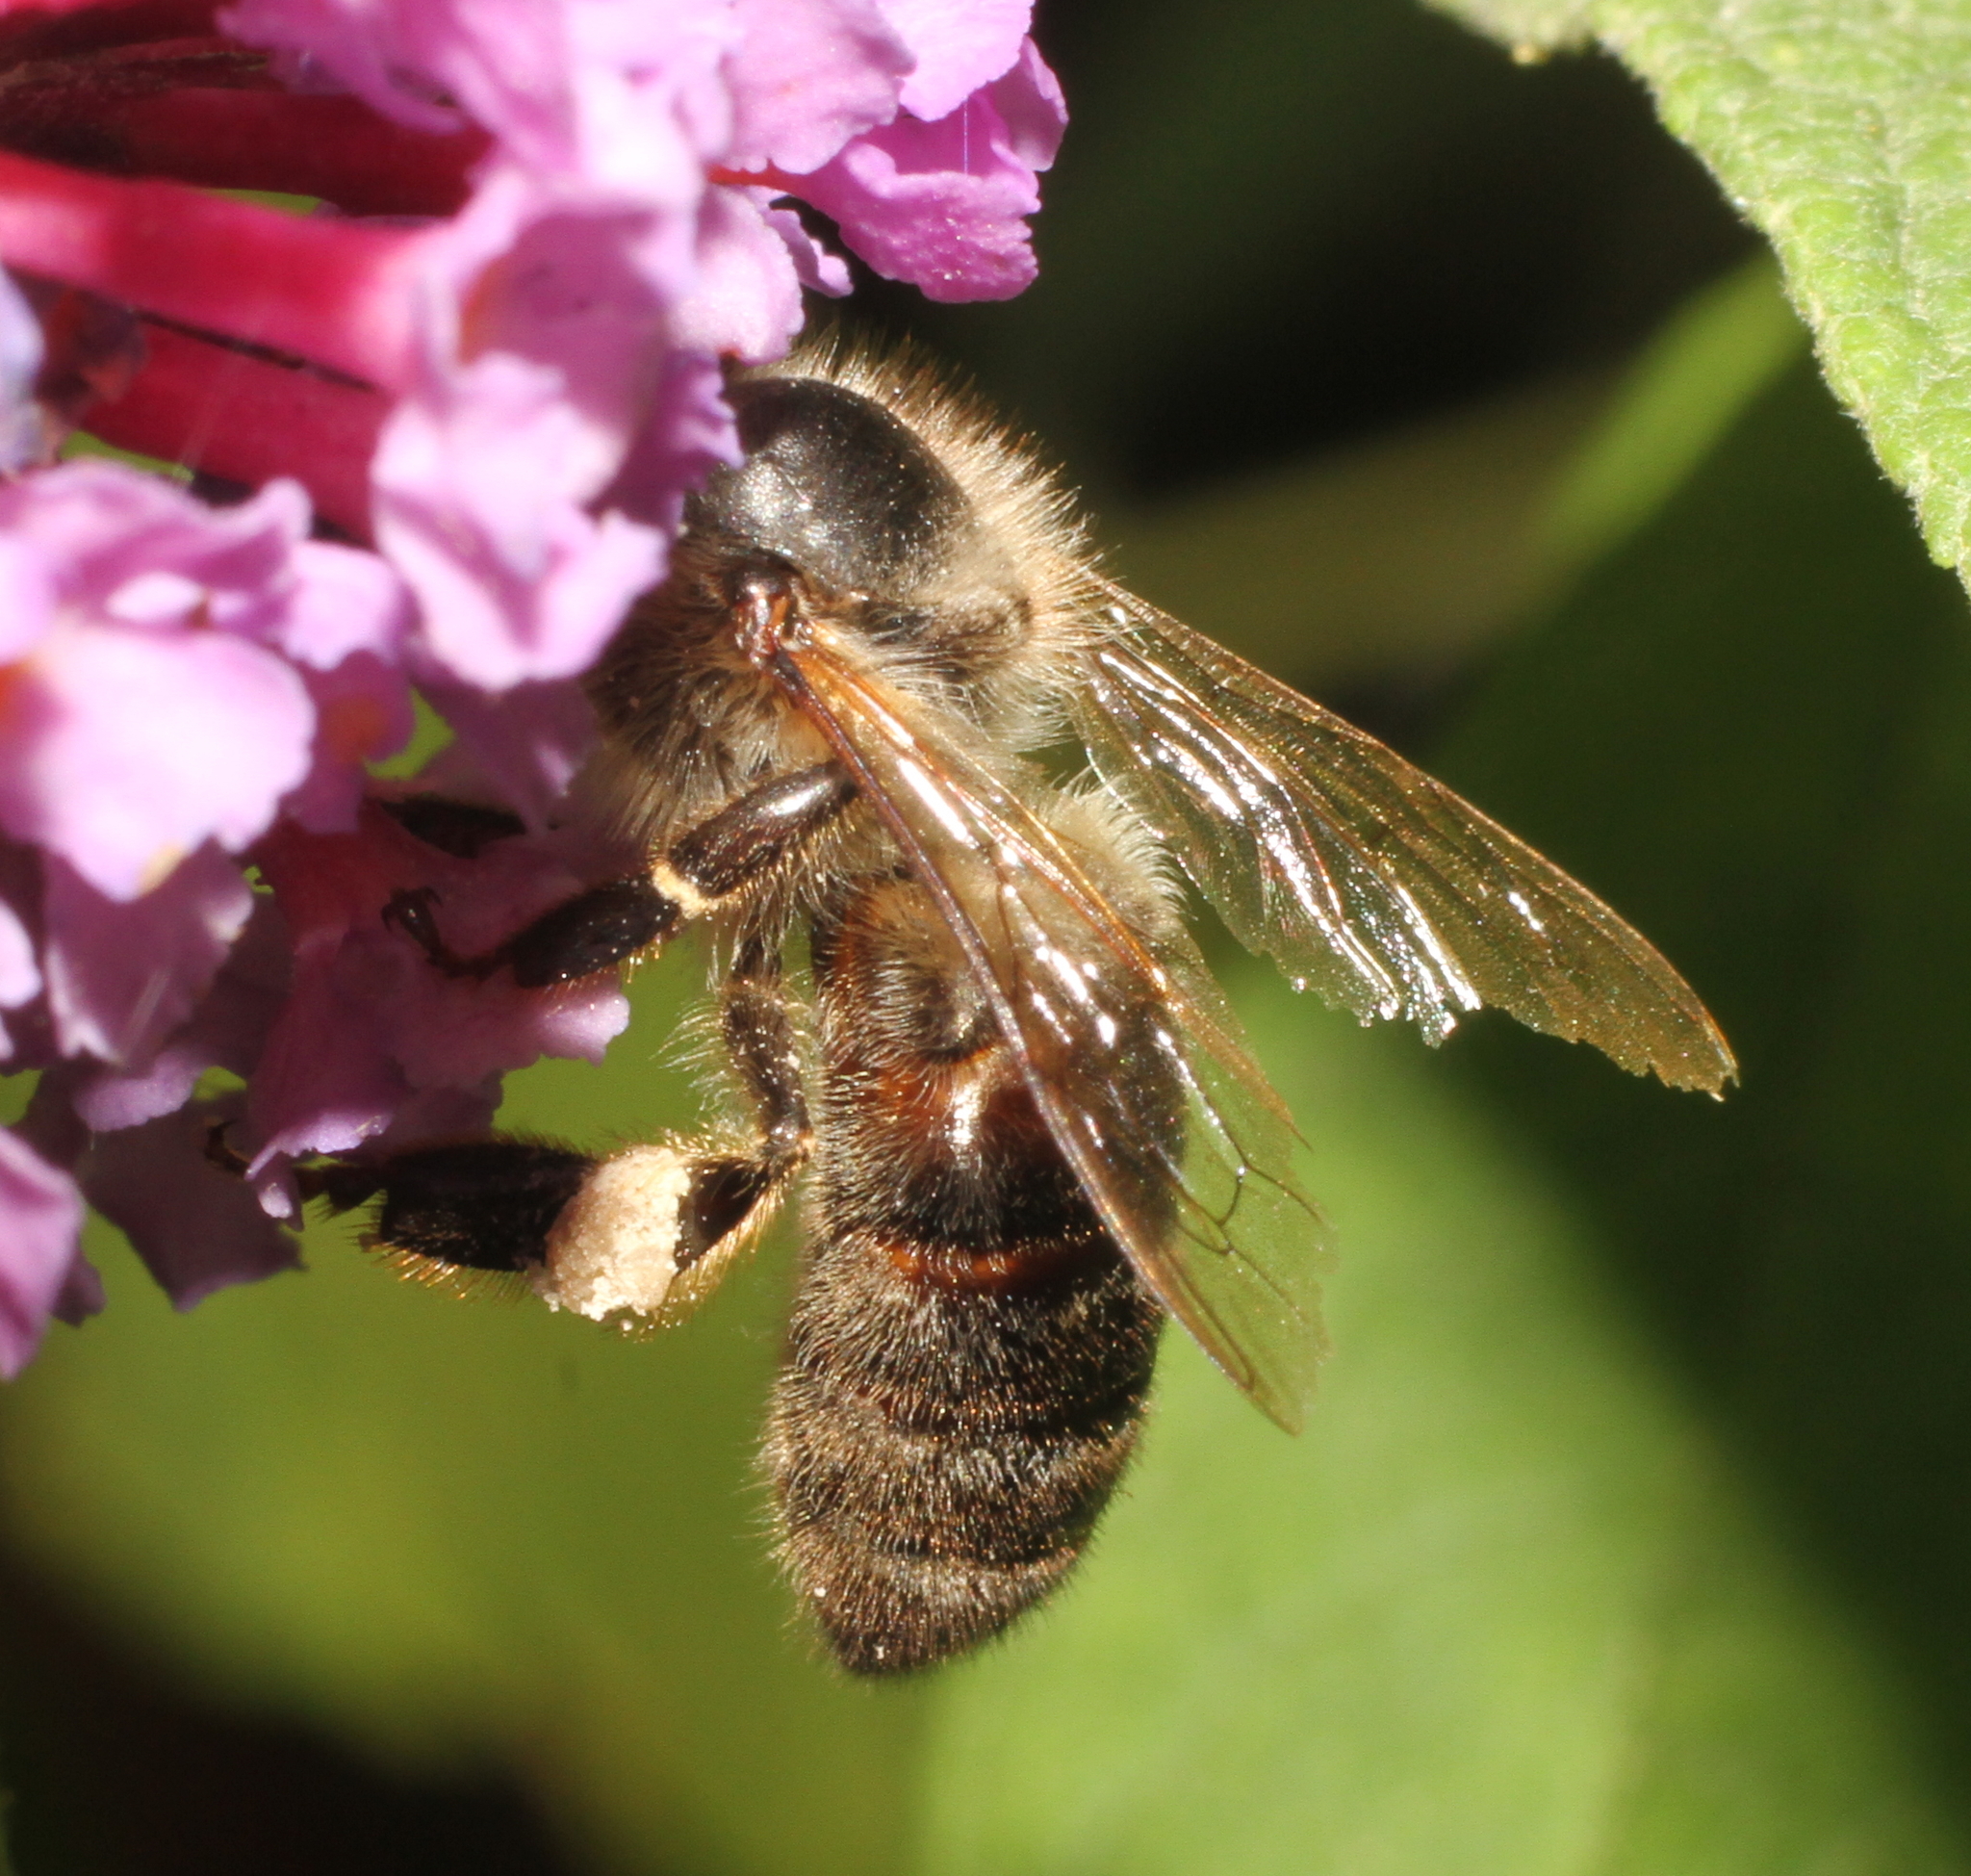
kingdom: Animalia
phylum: Arthropoda
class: Insecta
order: Hymenoptera
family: Apidae
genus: Apis
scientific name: Apis mellifera
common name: Honey bee
